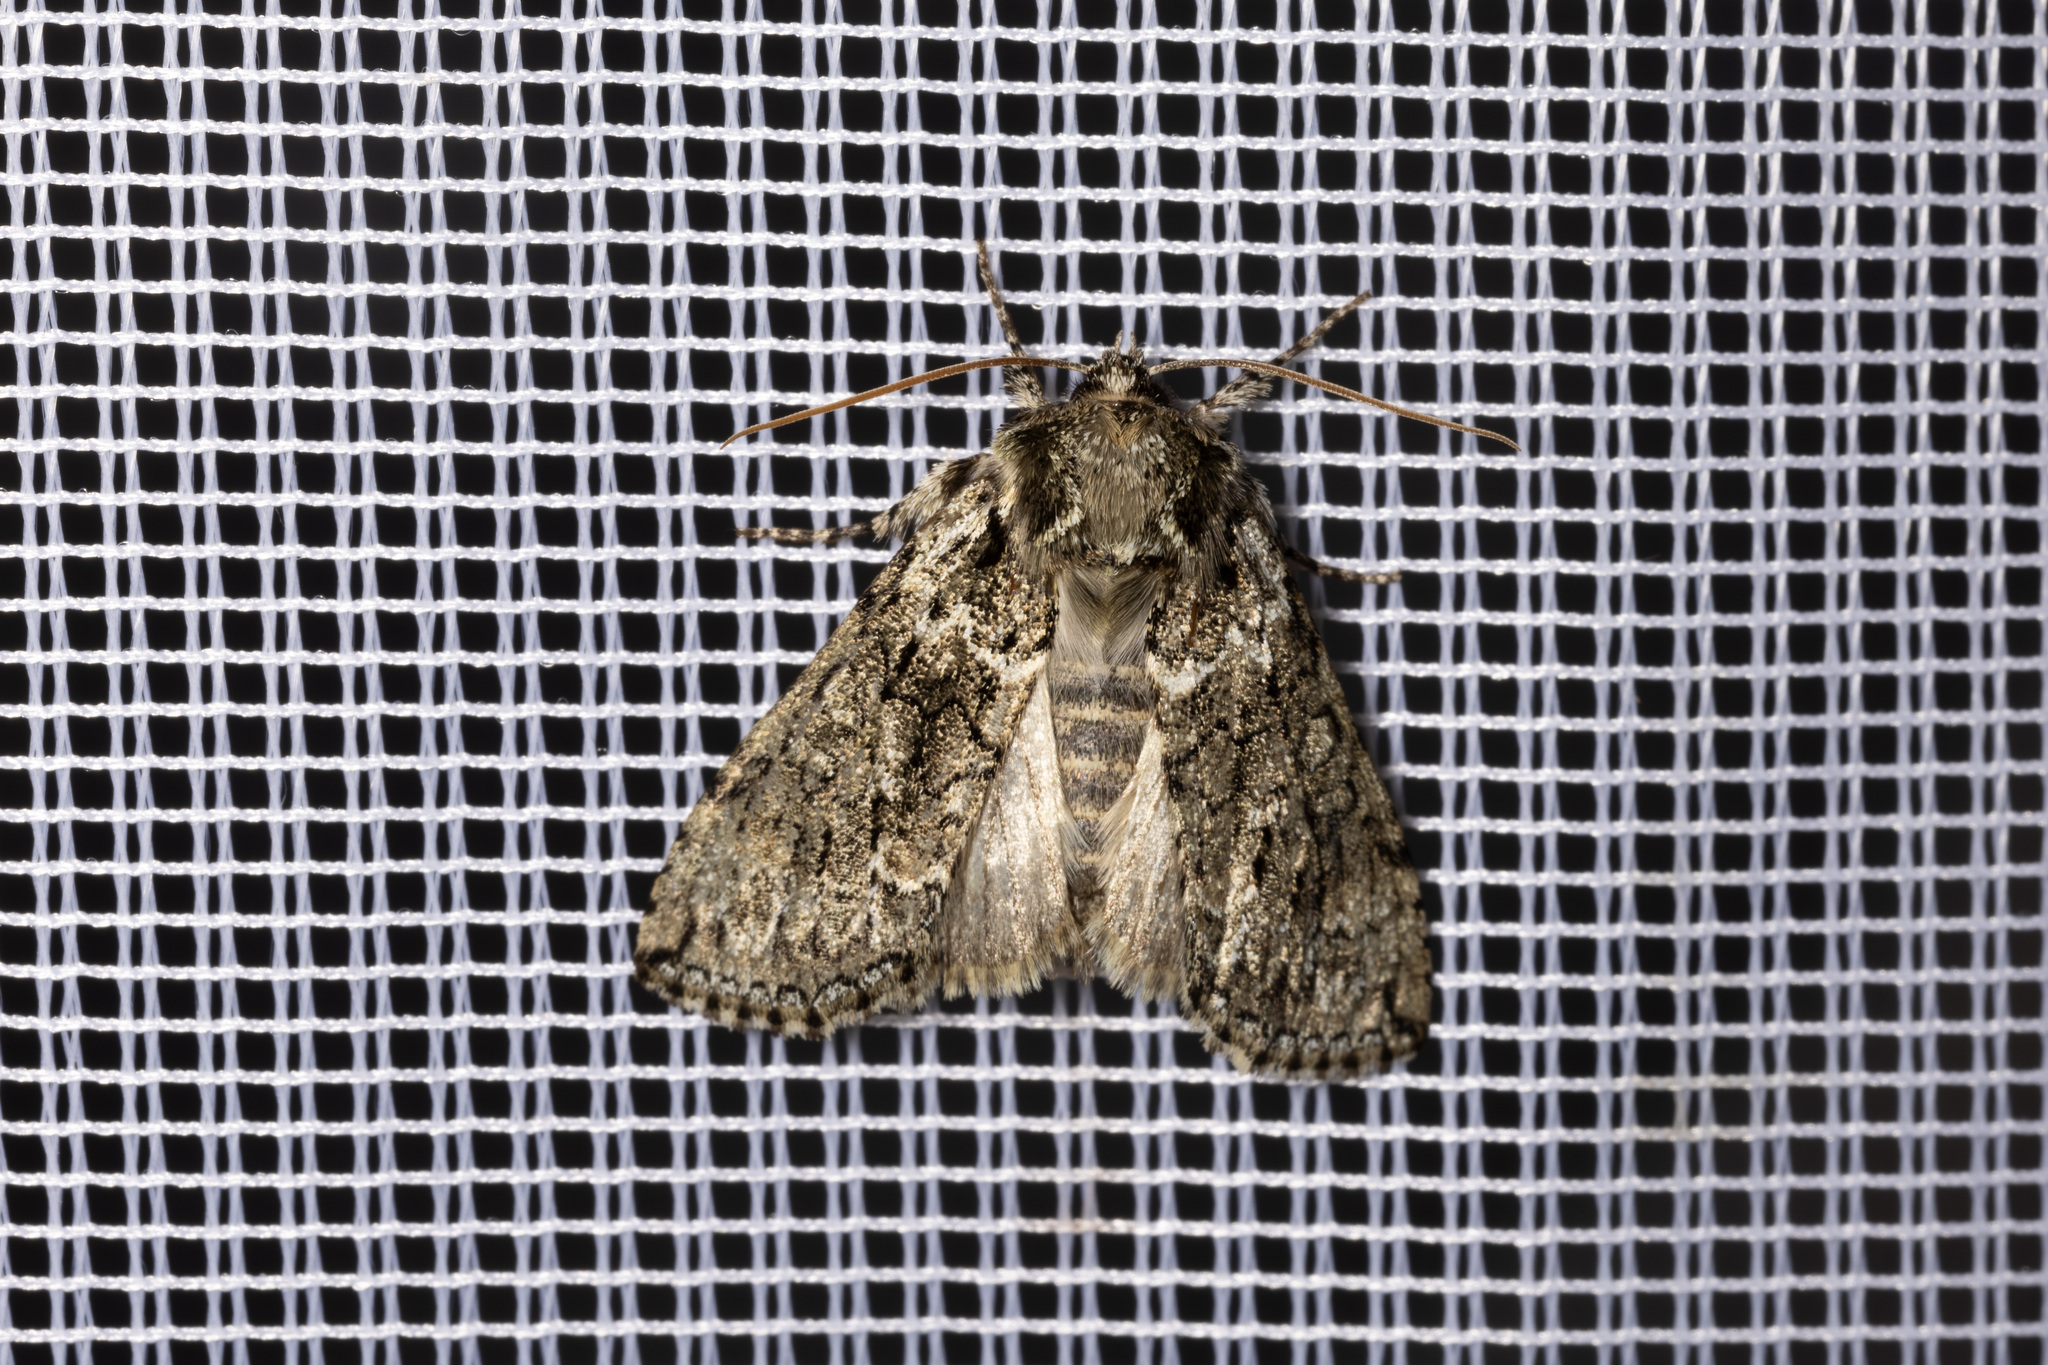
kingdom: Animalia
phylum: Arthropoda
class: Insecta
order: Lepidoptera
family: Drepanidae
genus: Polyploca
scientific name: Polyploca ridens
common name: Frosted green
